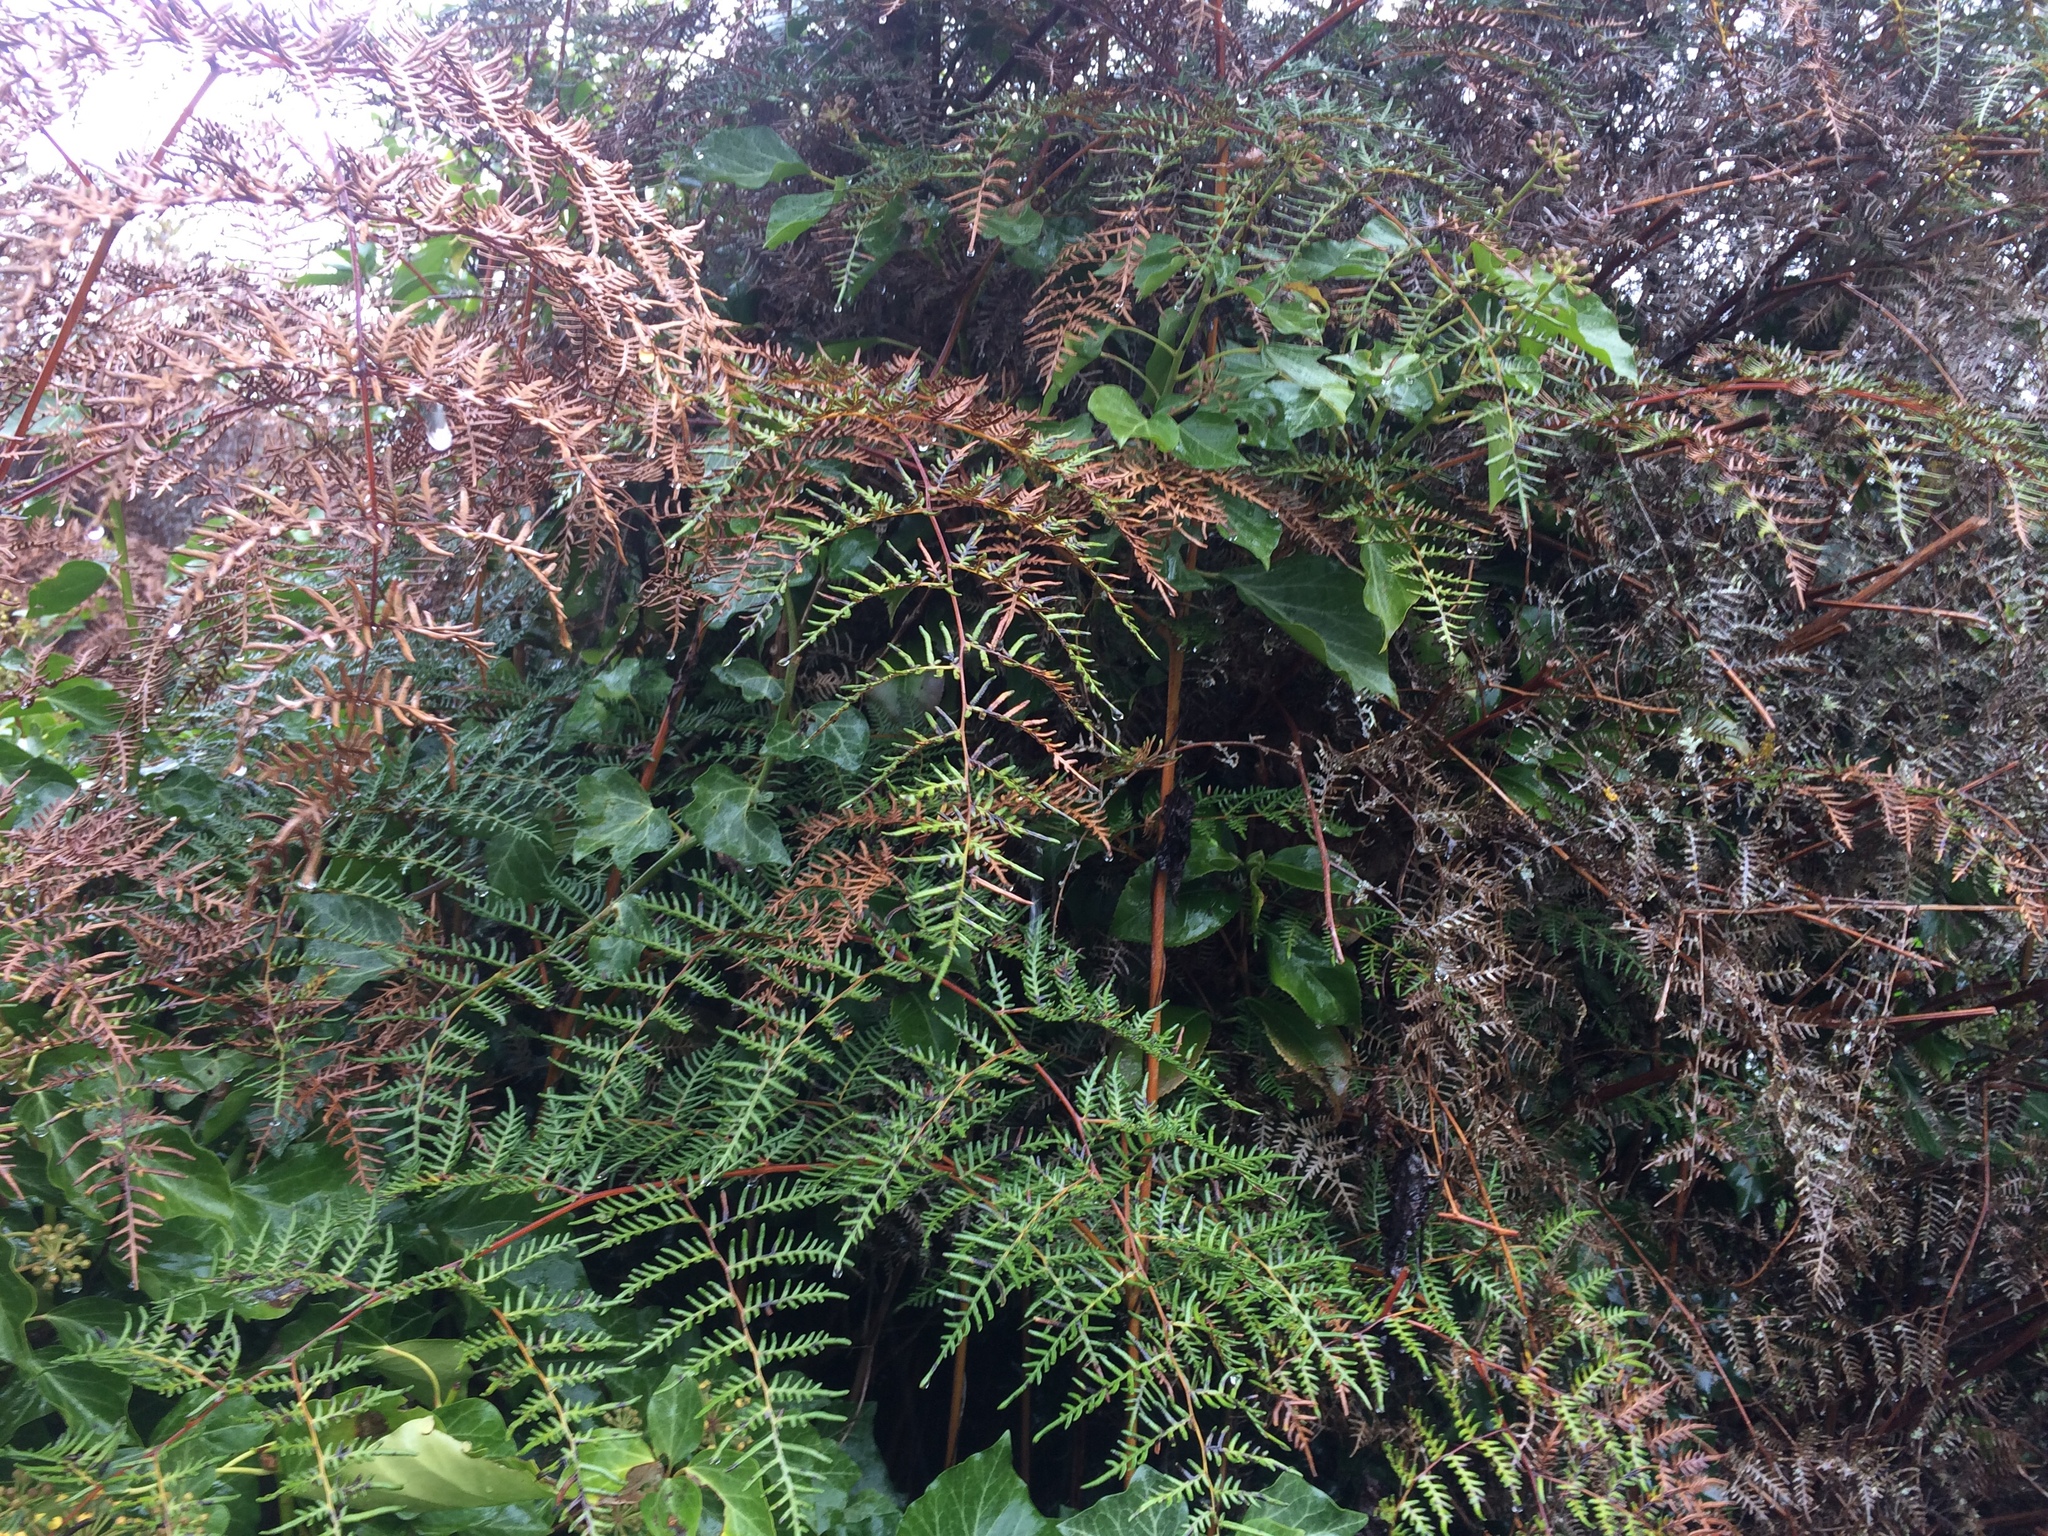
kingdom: Plantae
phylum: Tracheophyta
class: Polypodiopsida
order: Polypodiales
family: Dennstaedtiaceae
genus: Pteridium
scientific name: Pteridium esculentum
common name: Bracken fern
